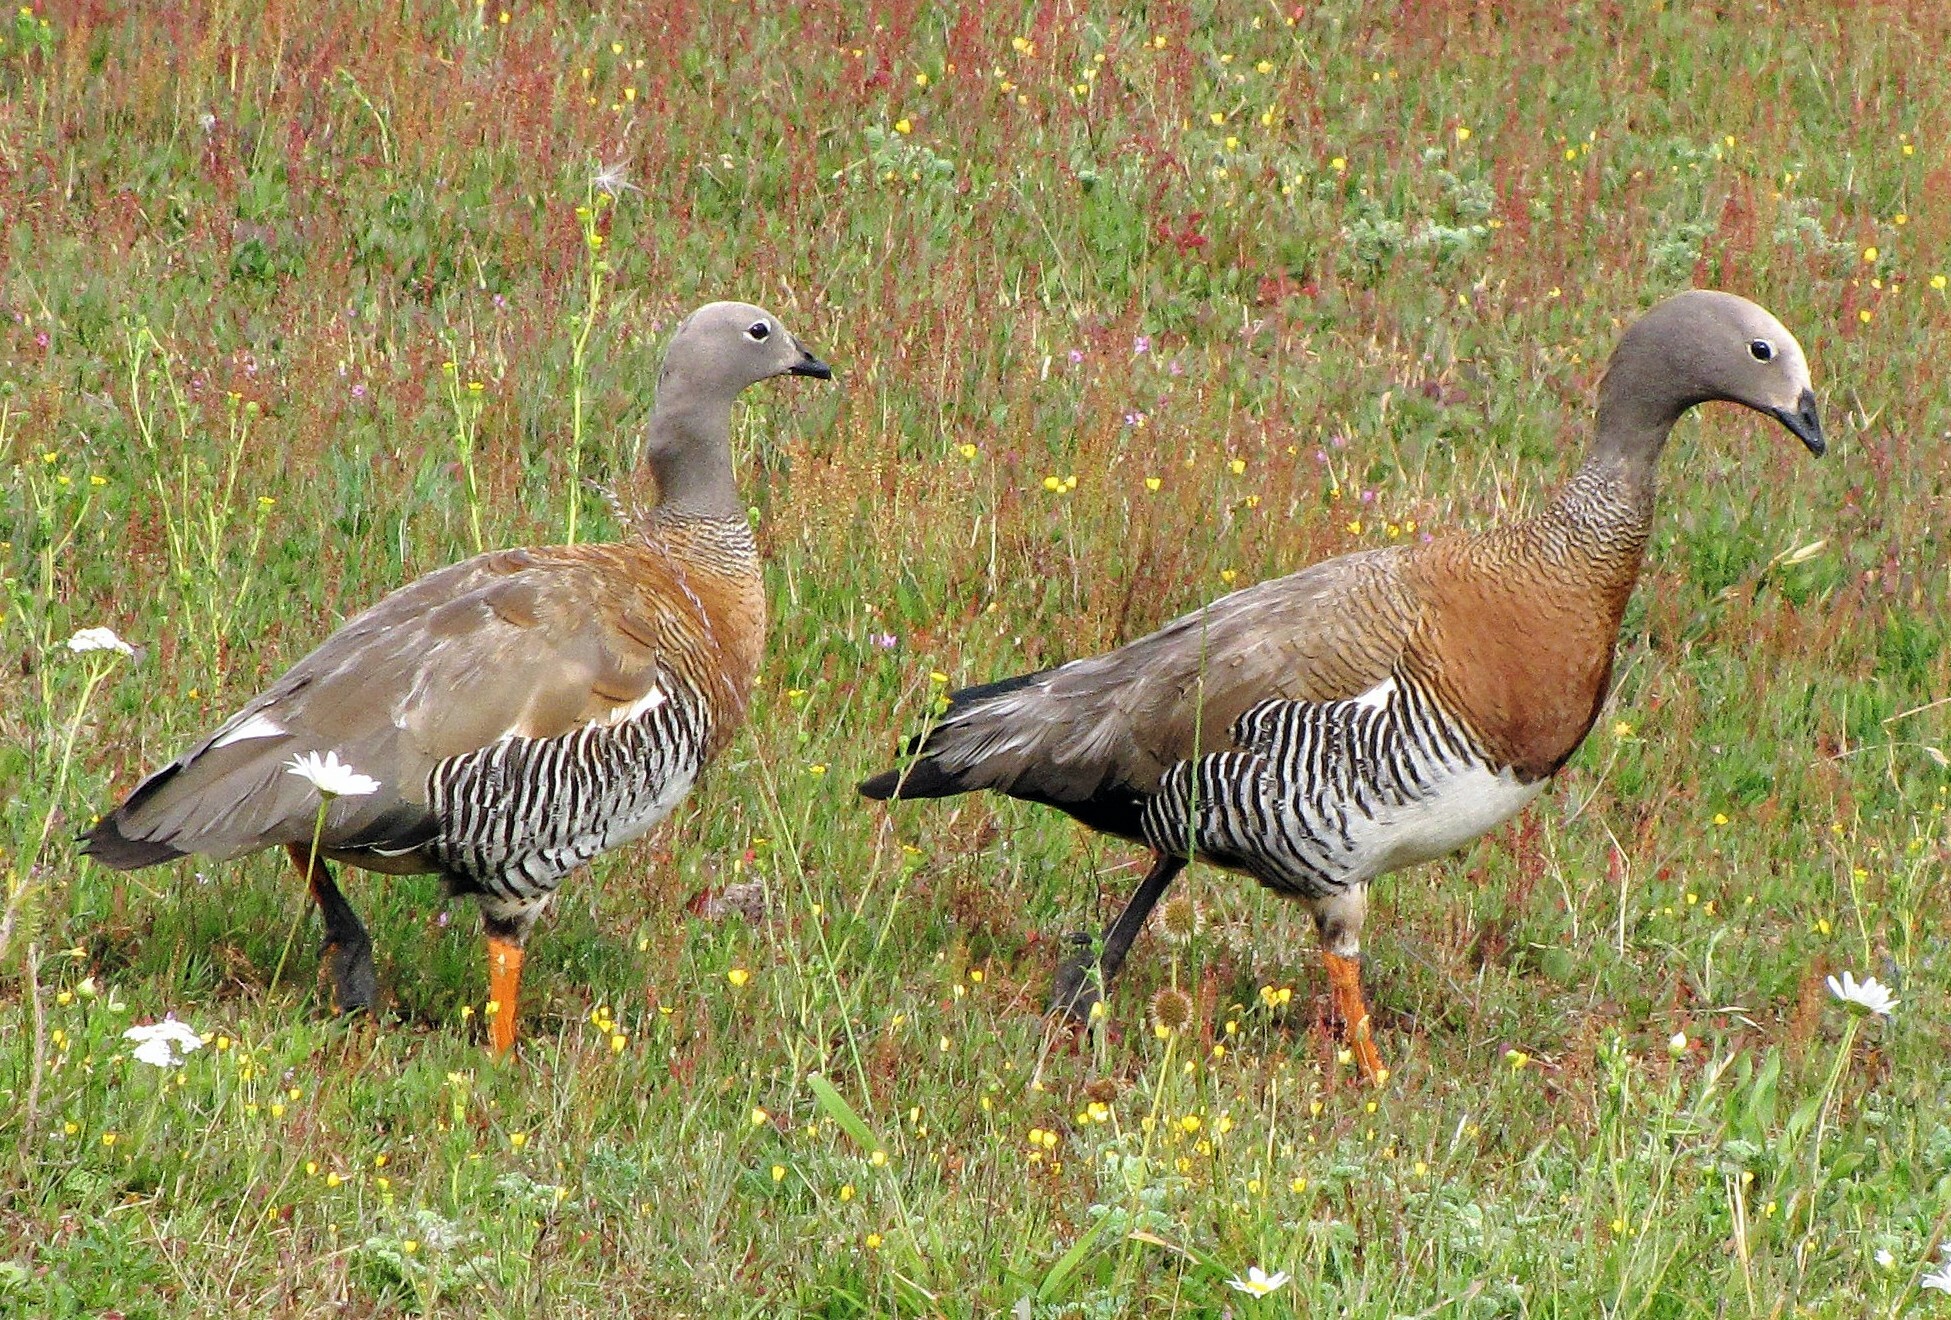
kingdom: Animalia
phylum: Chordata
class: Aves
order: Anseriformes
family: Anatidae
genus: Chloephaga
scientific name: Chloephaga poliocephala
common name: Ashy-headed goose
